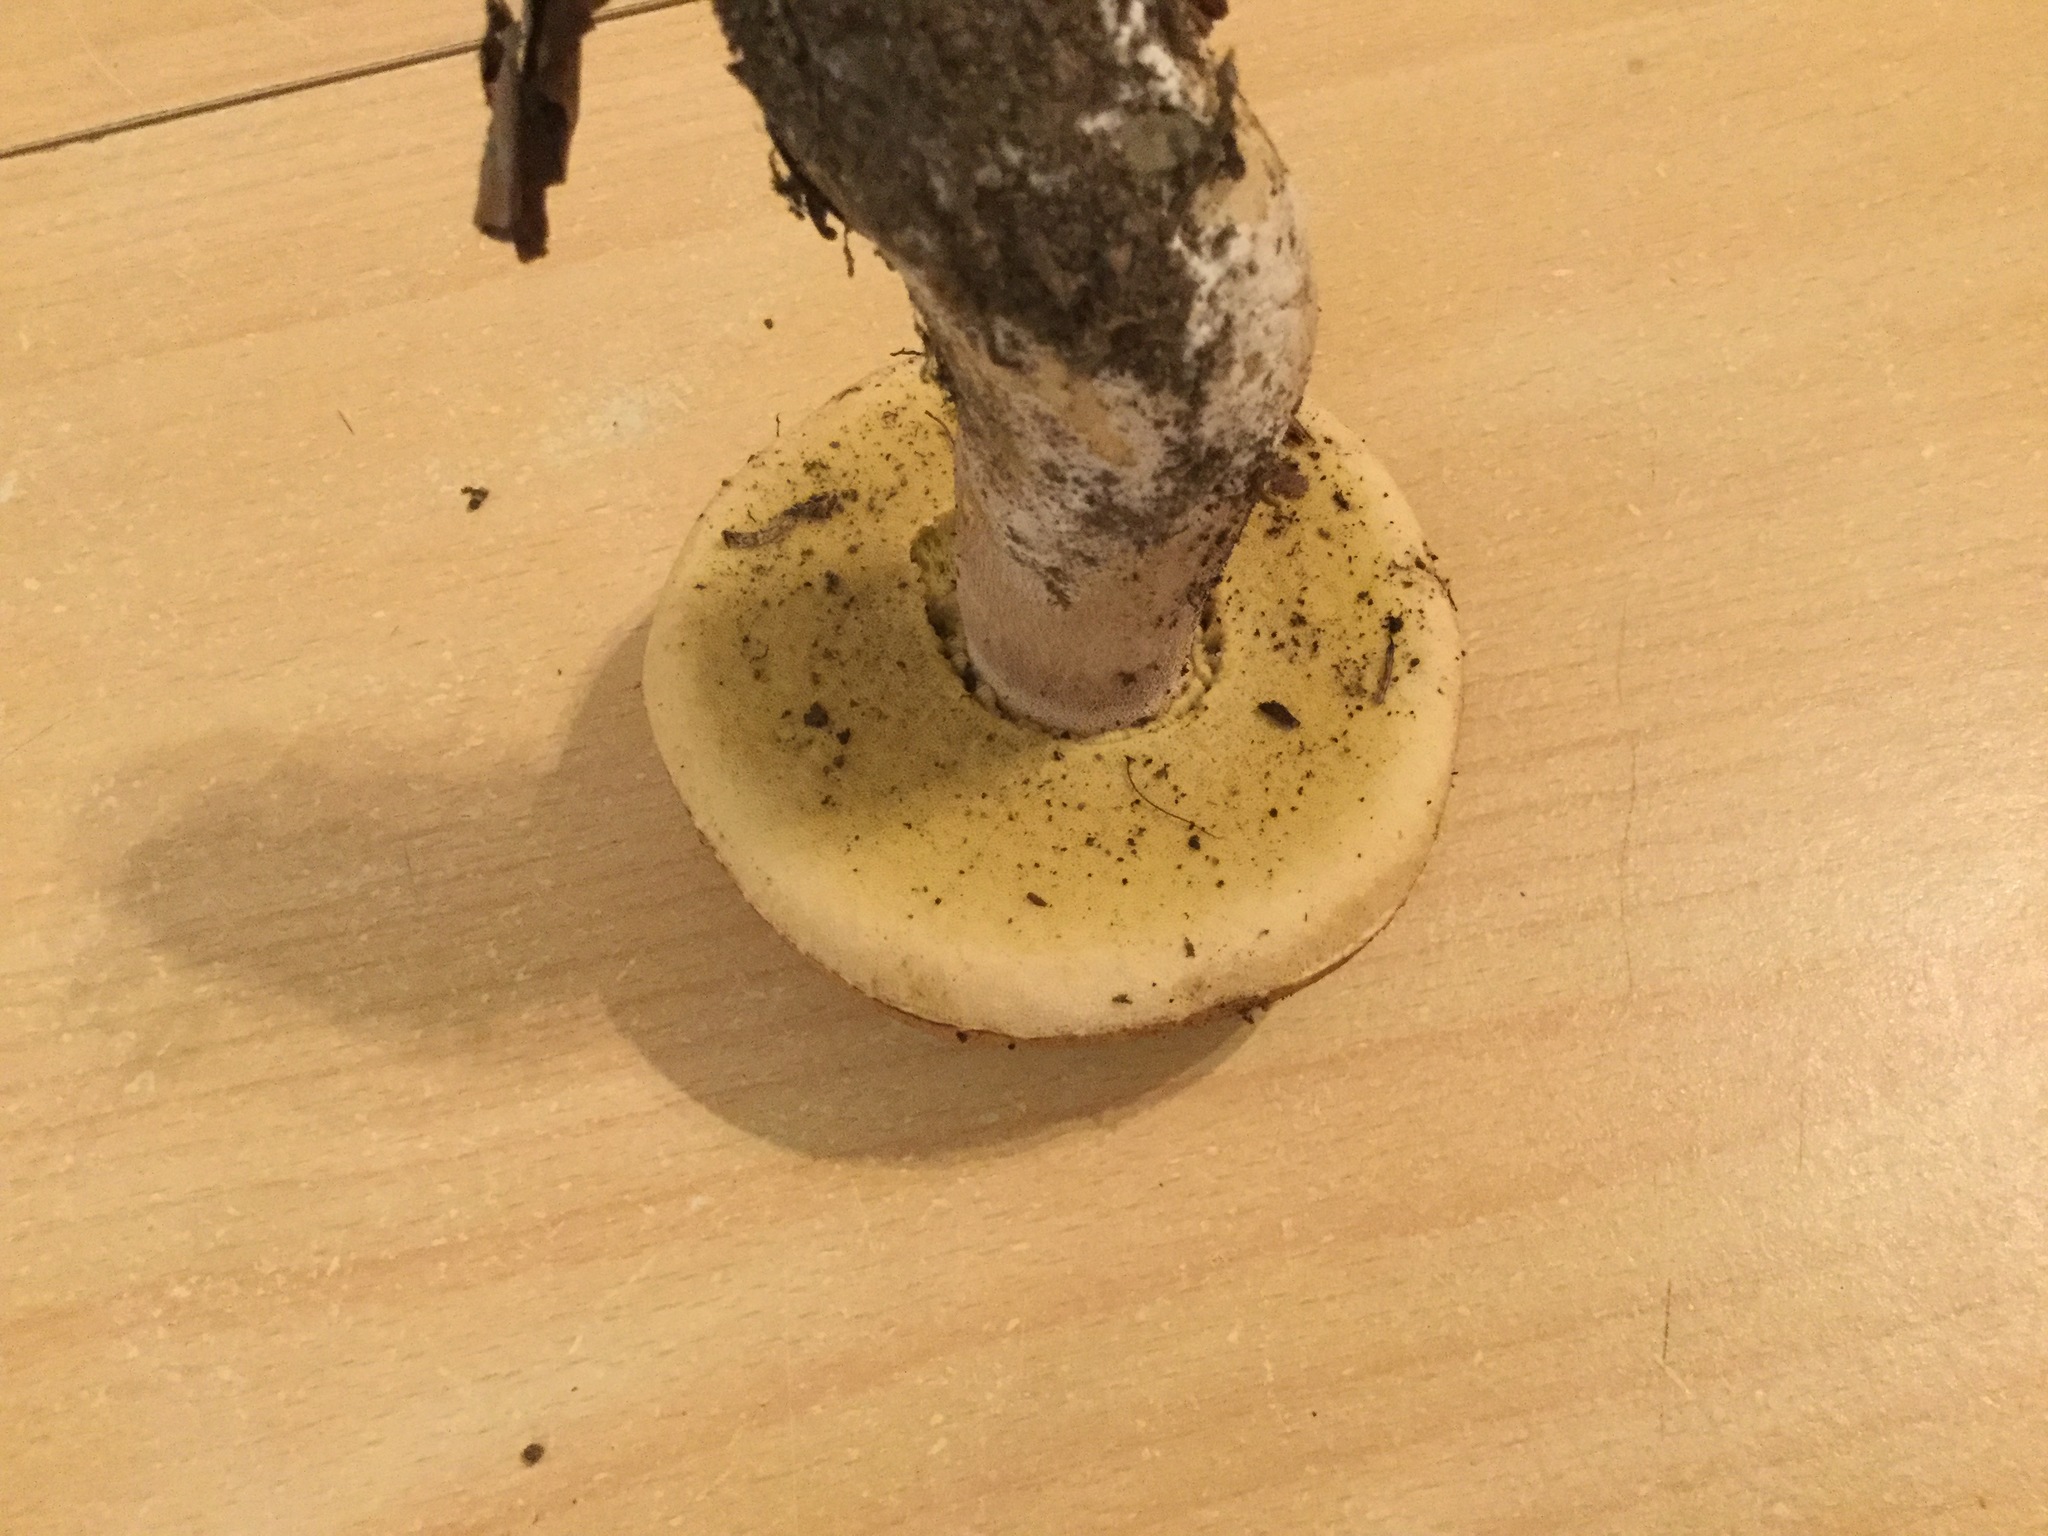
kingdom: Fungi
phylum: Basidiomycota
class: Agaricomycetes
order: Boletales
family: Boletaceae
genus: Boletus
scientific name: Boletus reticulatus
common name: Summer bolete
